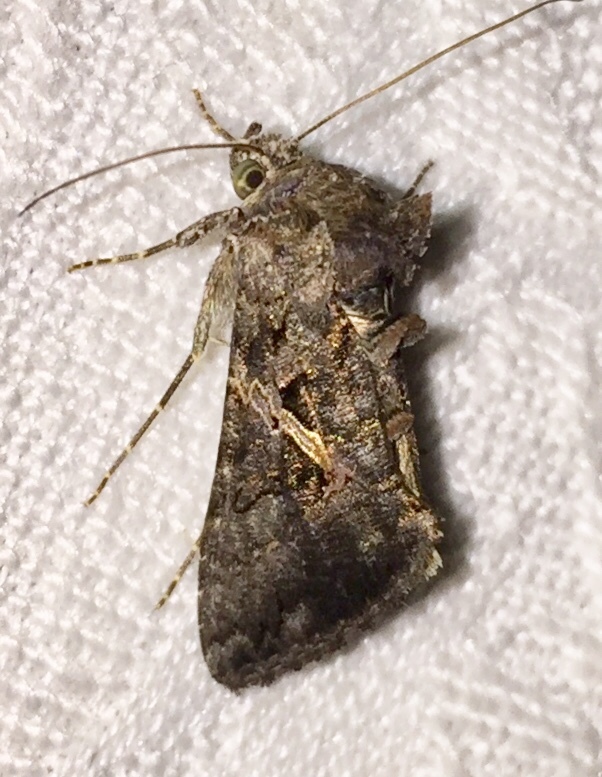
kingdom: Animalia
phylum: Arthropoda
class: Insecta
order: Lepidoptera
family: Noctuidae
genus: Ctenoplusia
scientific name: Ctenoplusia oxygramma
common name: Sharp-stigma looper moth
